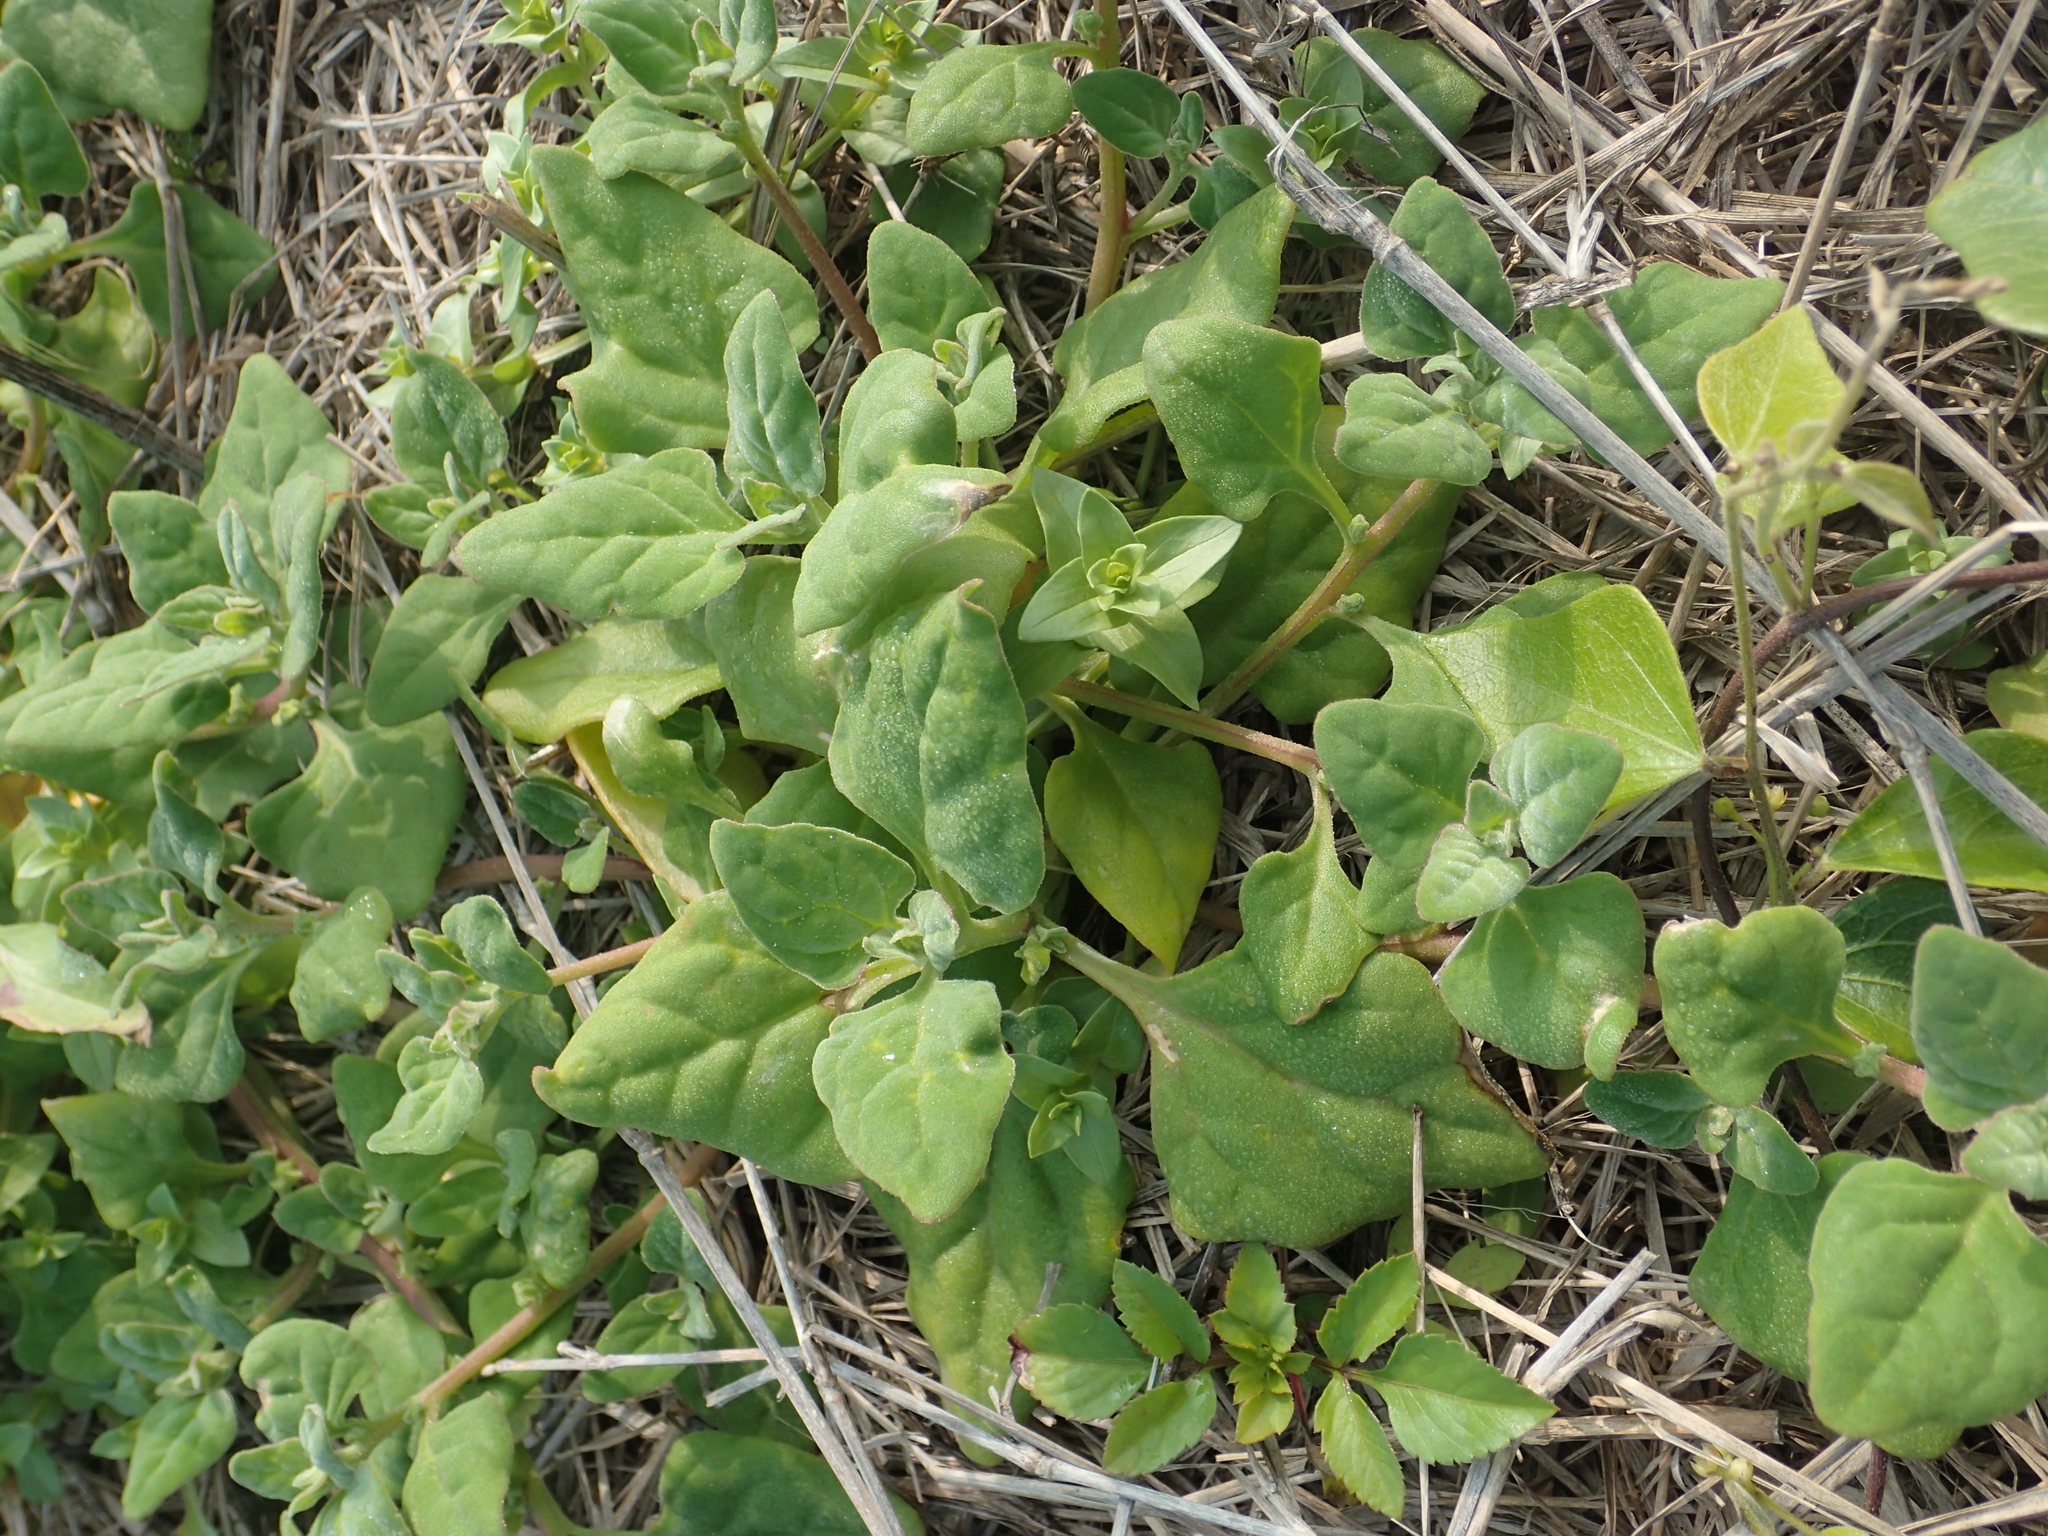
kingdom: Plantae
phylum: Tracheophyta
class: Magnoliopsida
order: Caryophyllales
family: Aizoaceae
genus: Tetragonia
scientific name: Tetragonia tetragonoides
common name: New zealand-spinach
